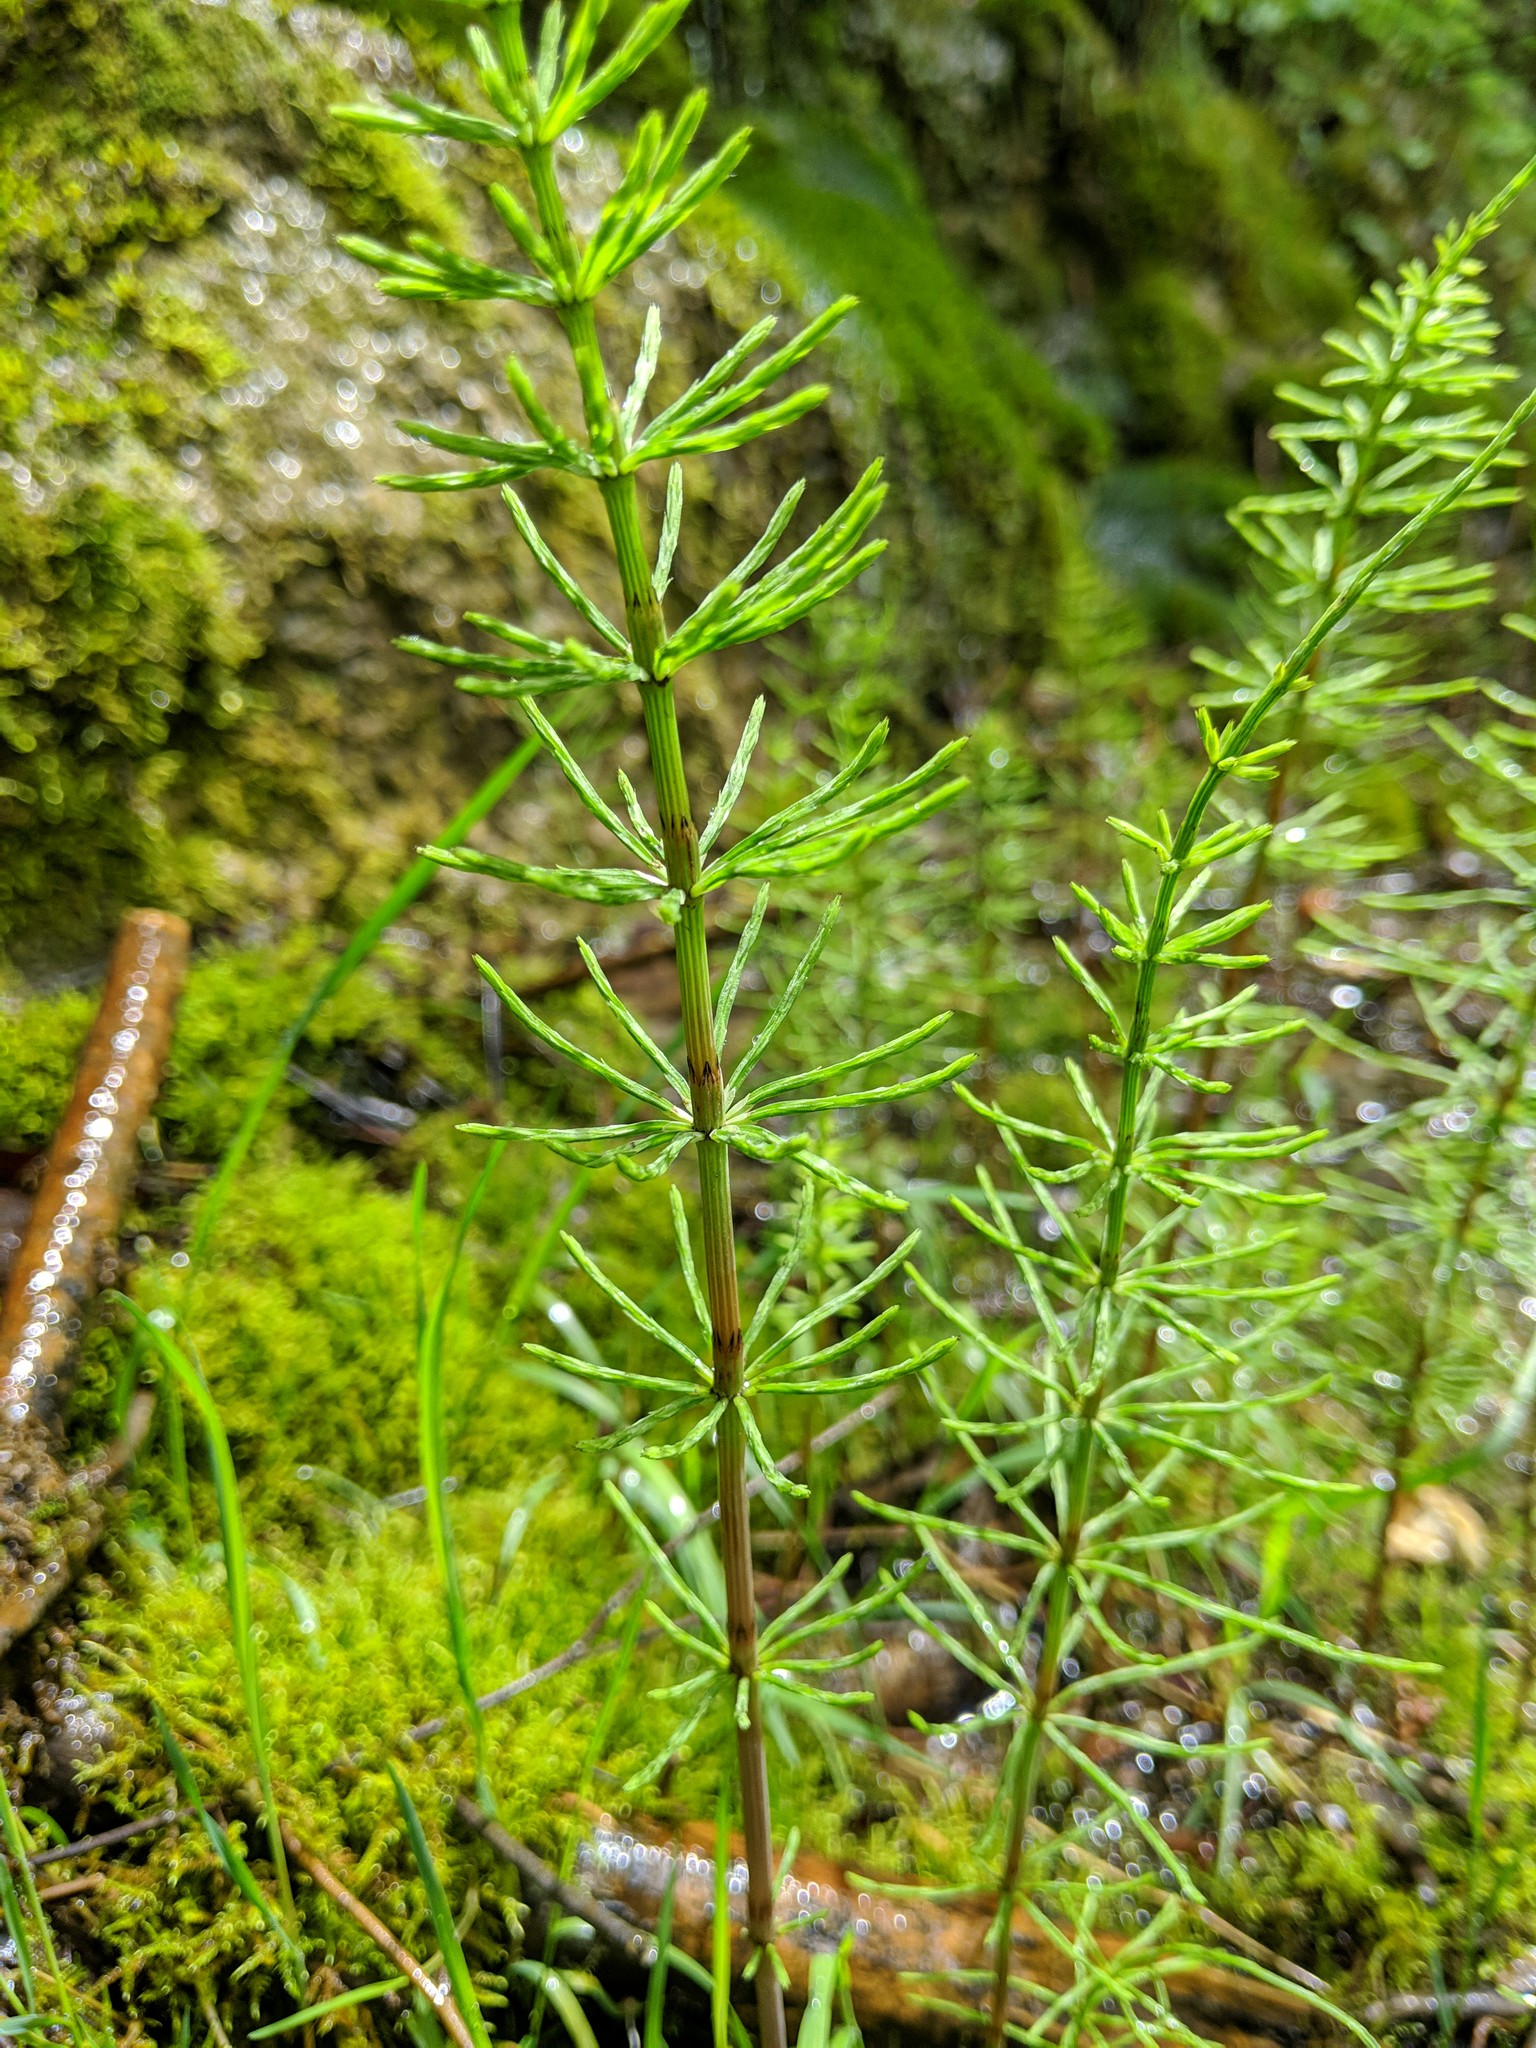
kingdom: Plantae
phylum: Tracheophyta
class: Polypodiopsida
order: Equisetales
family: Equisetaceae
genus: Equisetum
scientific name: Equisetum arvense
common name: Field horsetail
